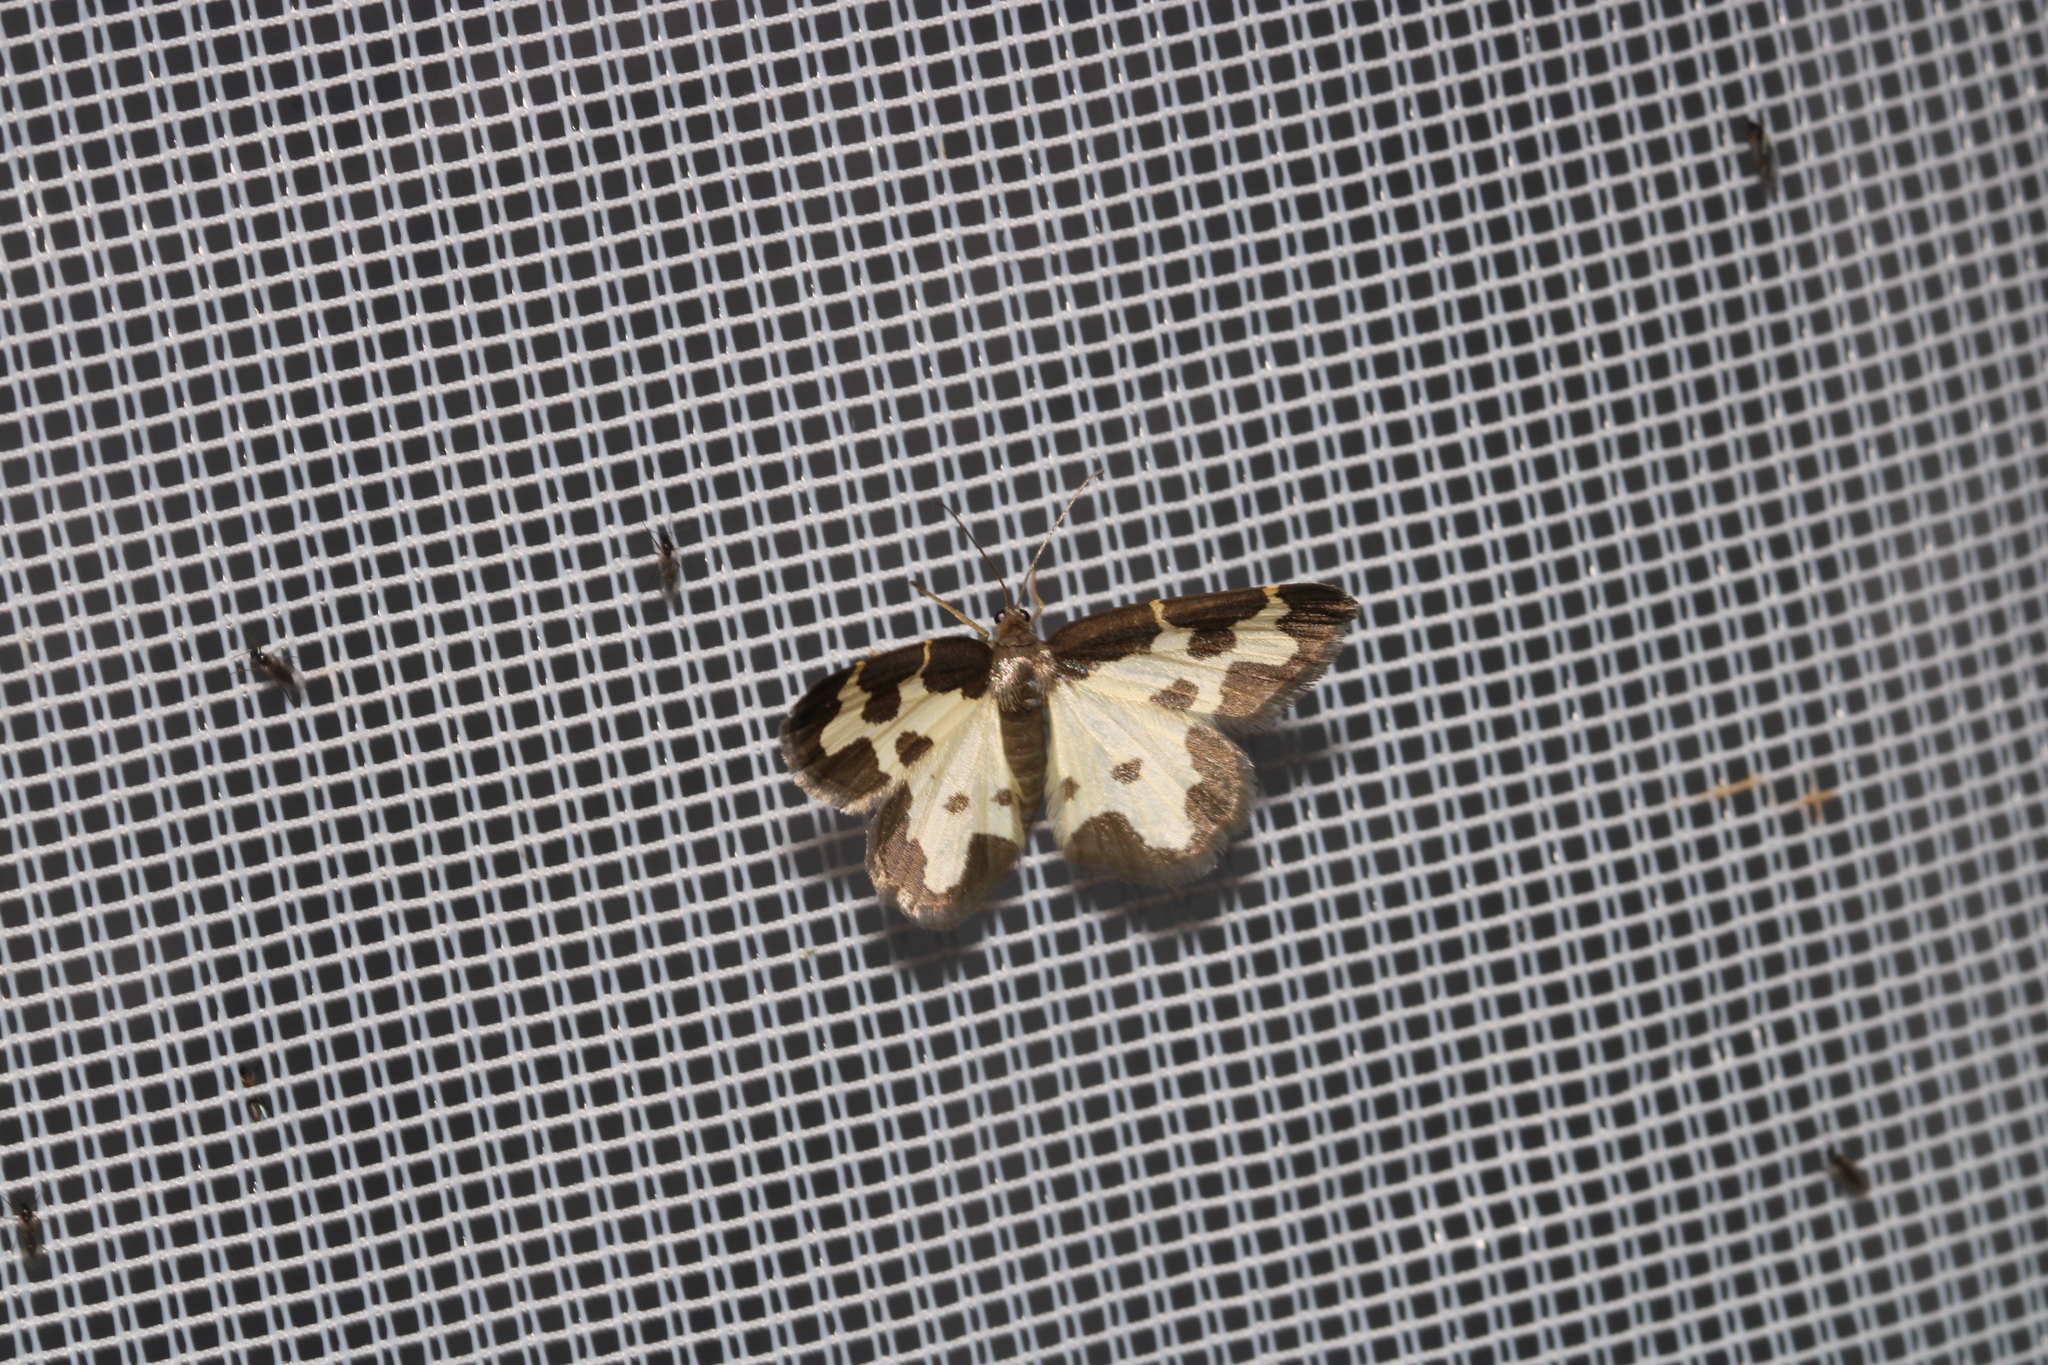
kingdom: Animalia
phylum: Arthropoda
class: Insecta
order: Lepidoptera
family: Geometridae
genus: Lomaspilis
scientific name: Lomaspilis marginata
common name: Clouded border
